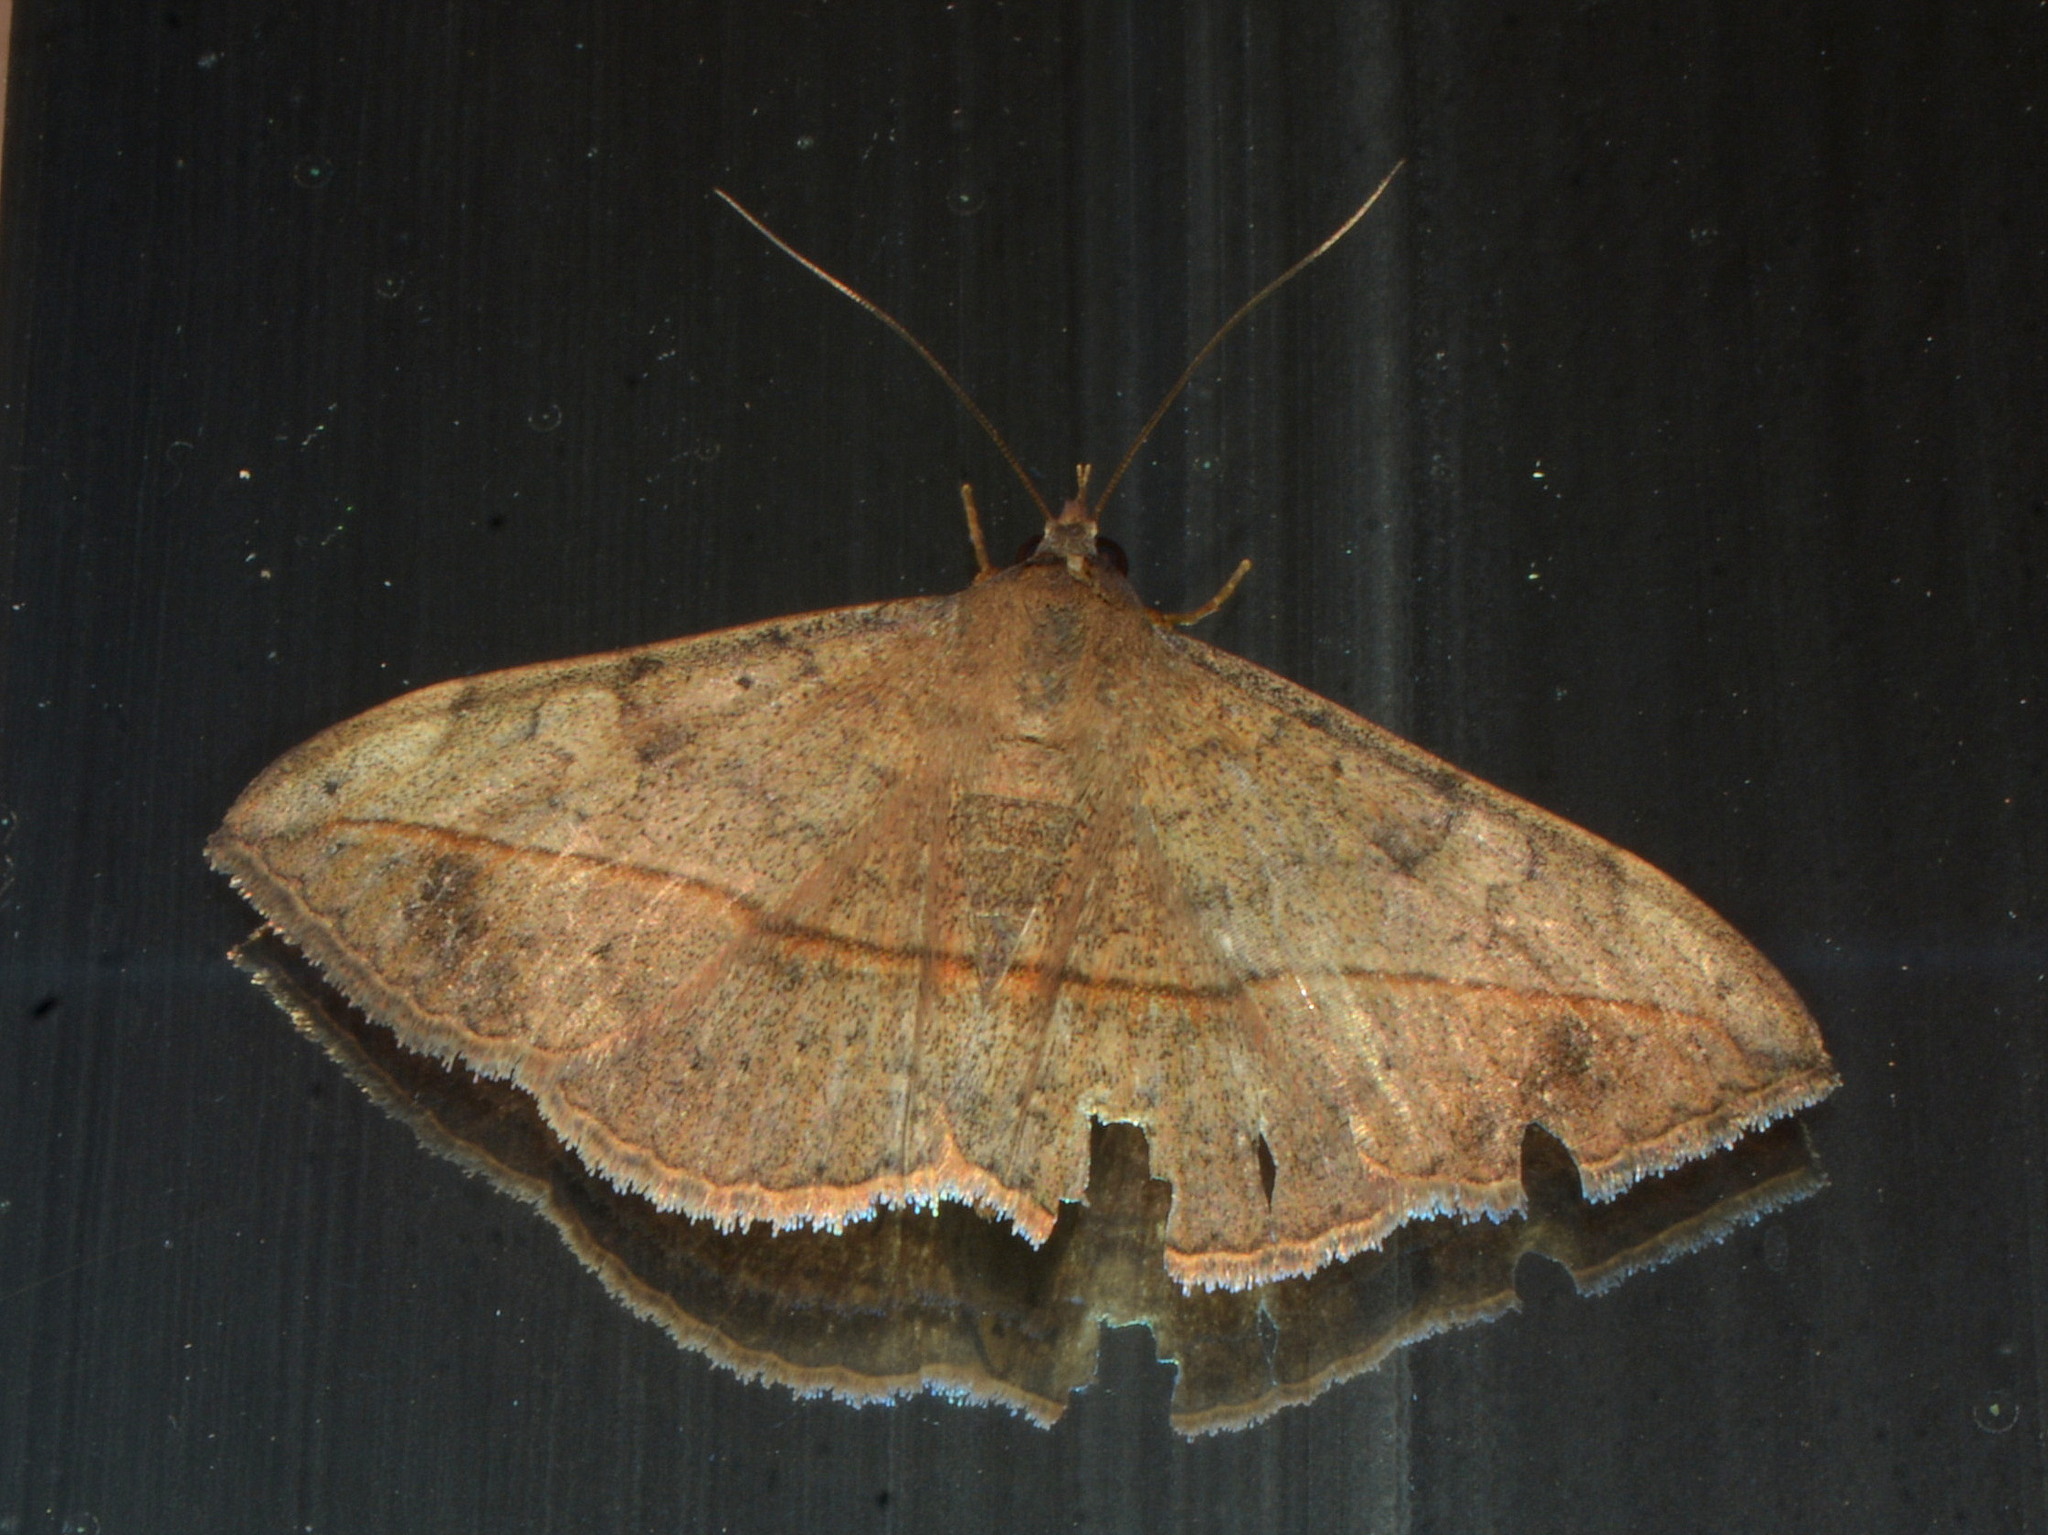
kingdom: Animalia
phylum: Arthropoda
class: Insecta
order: Lepidoptera
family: Erebidae
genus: Anticarsia
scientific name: Anticarsia gemmatalis
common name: Cutworm moth
